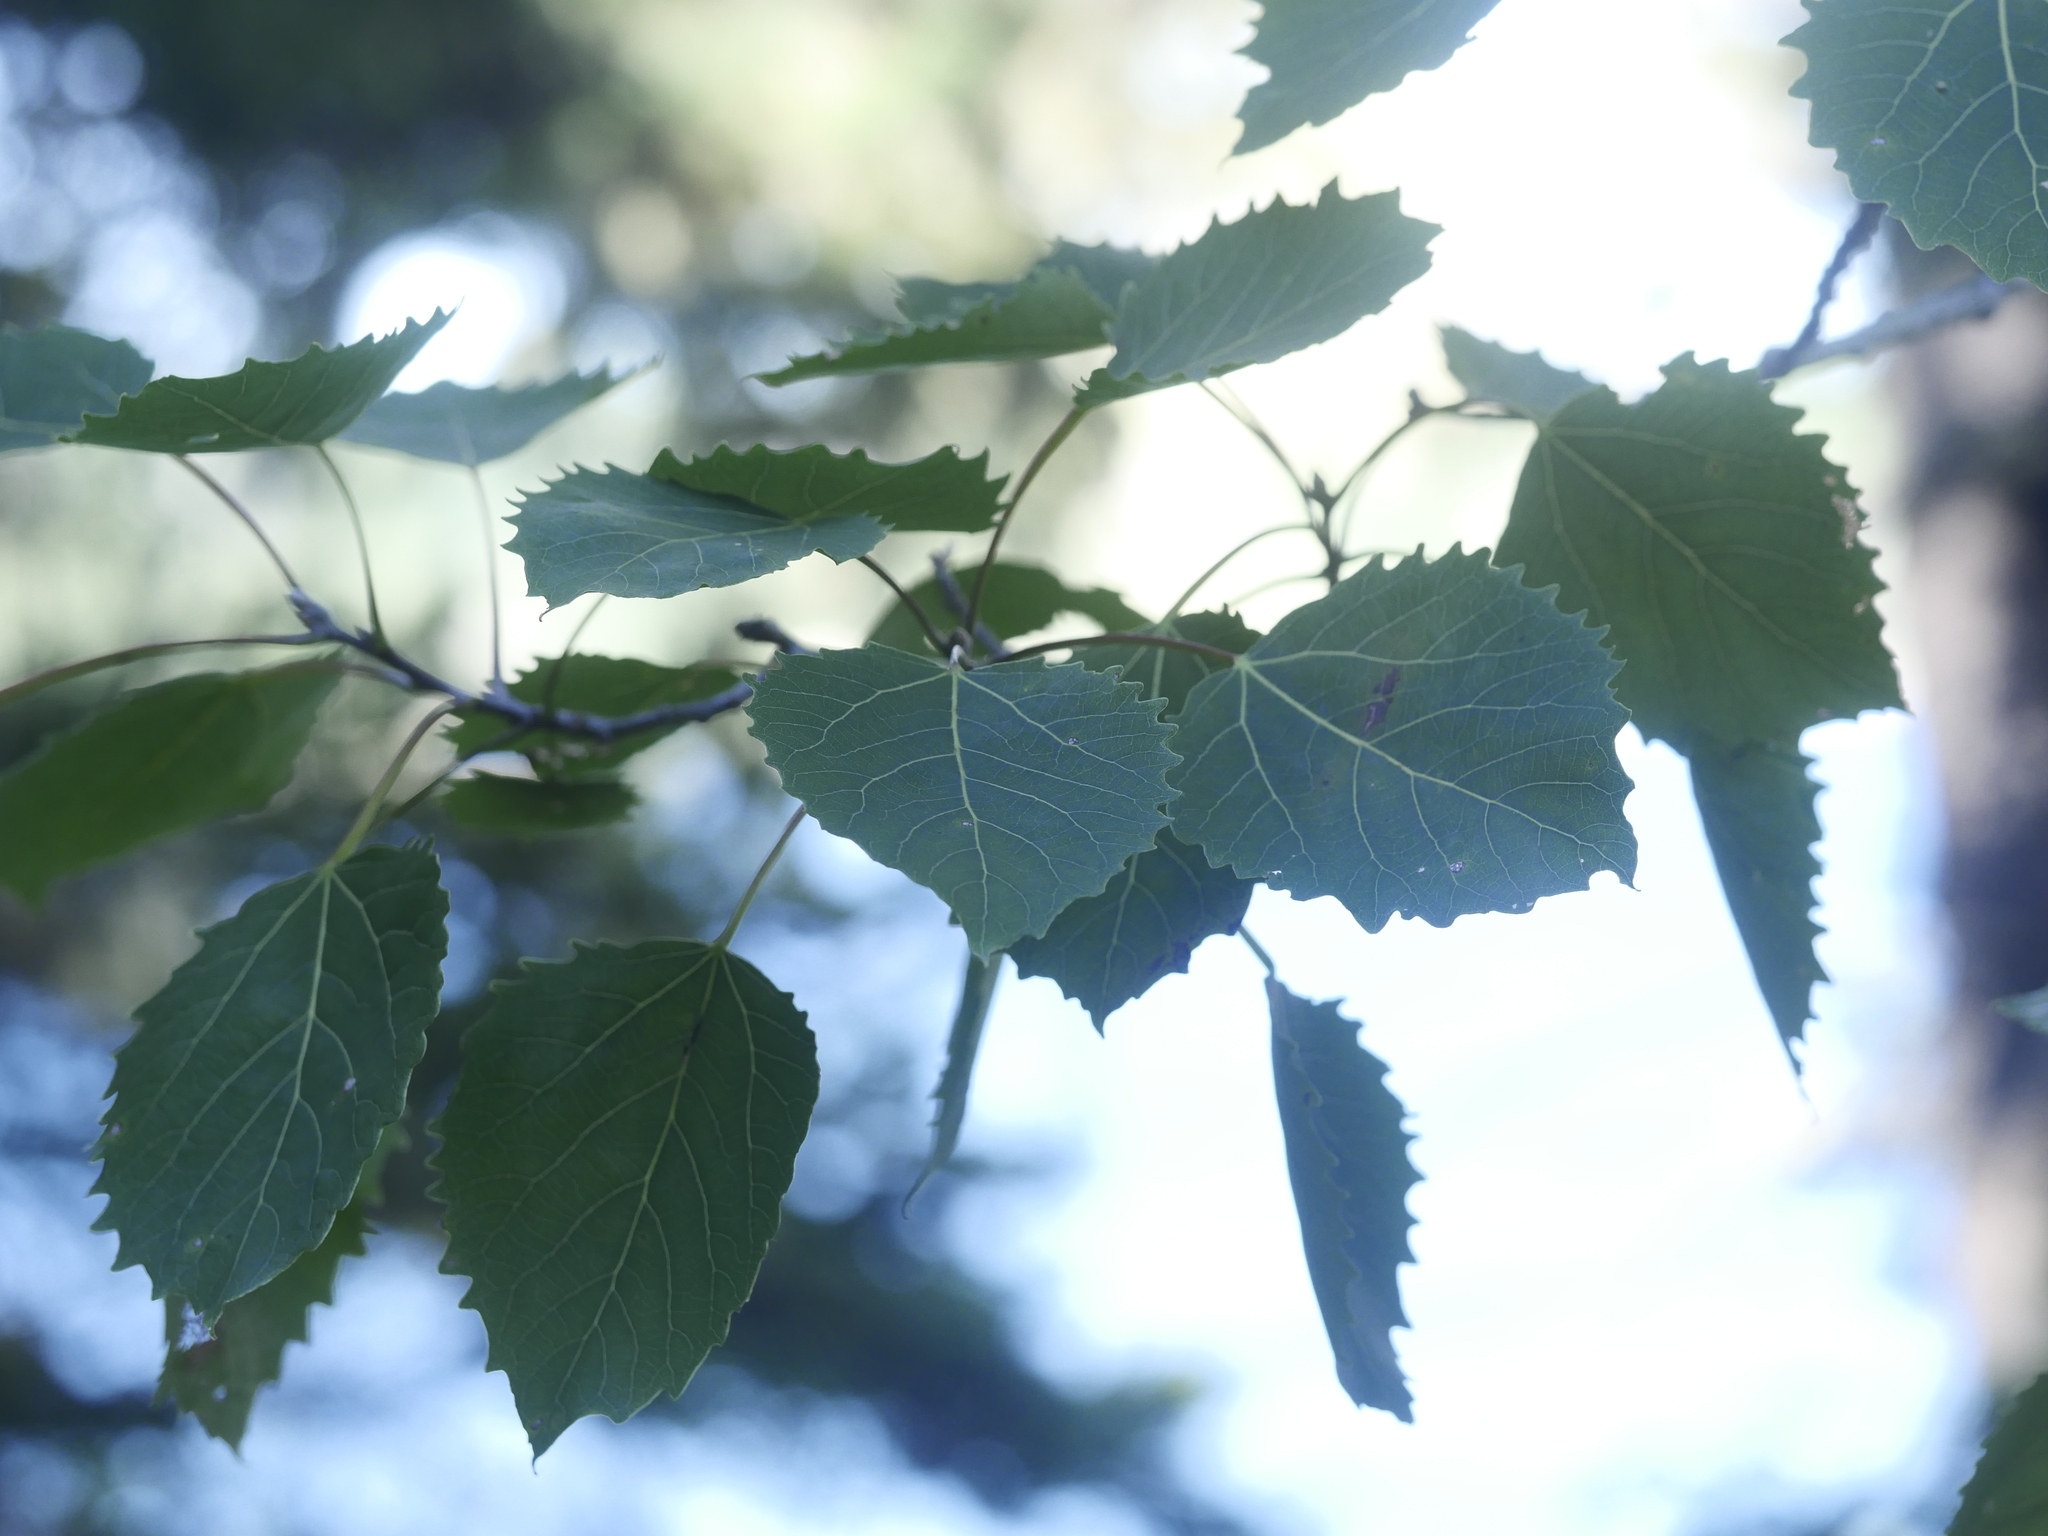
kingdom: Plantae
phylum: Tracheophyta
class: Magnoliopsida
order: Malpighiales
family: Salicaceae
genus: Populus
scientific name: Populus grandidentata
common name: Bigtooth aspen
